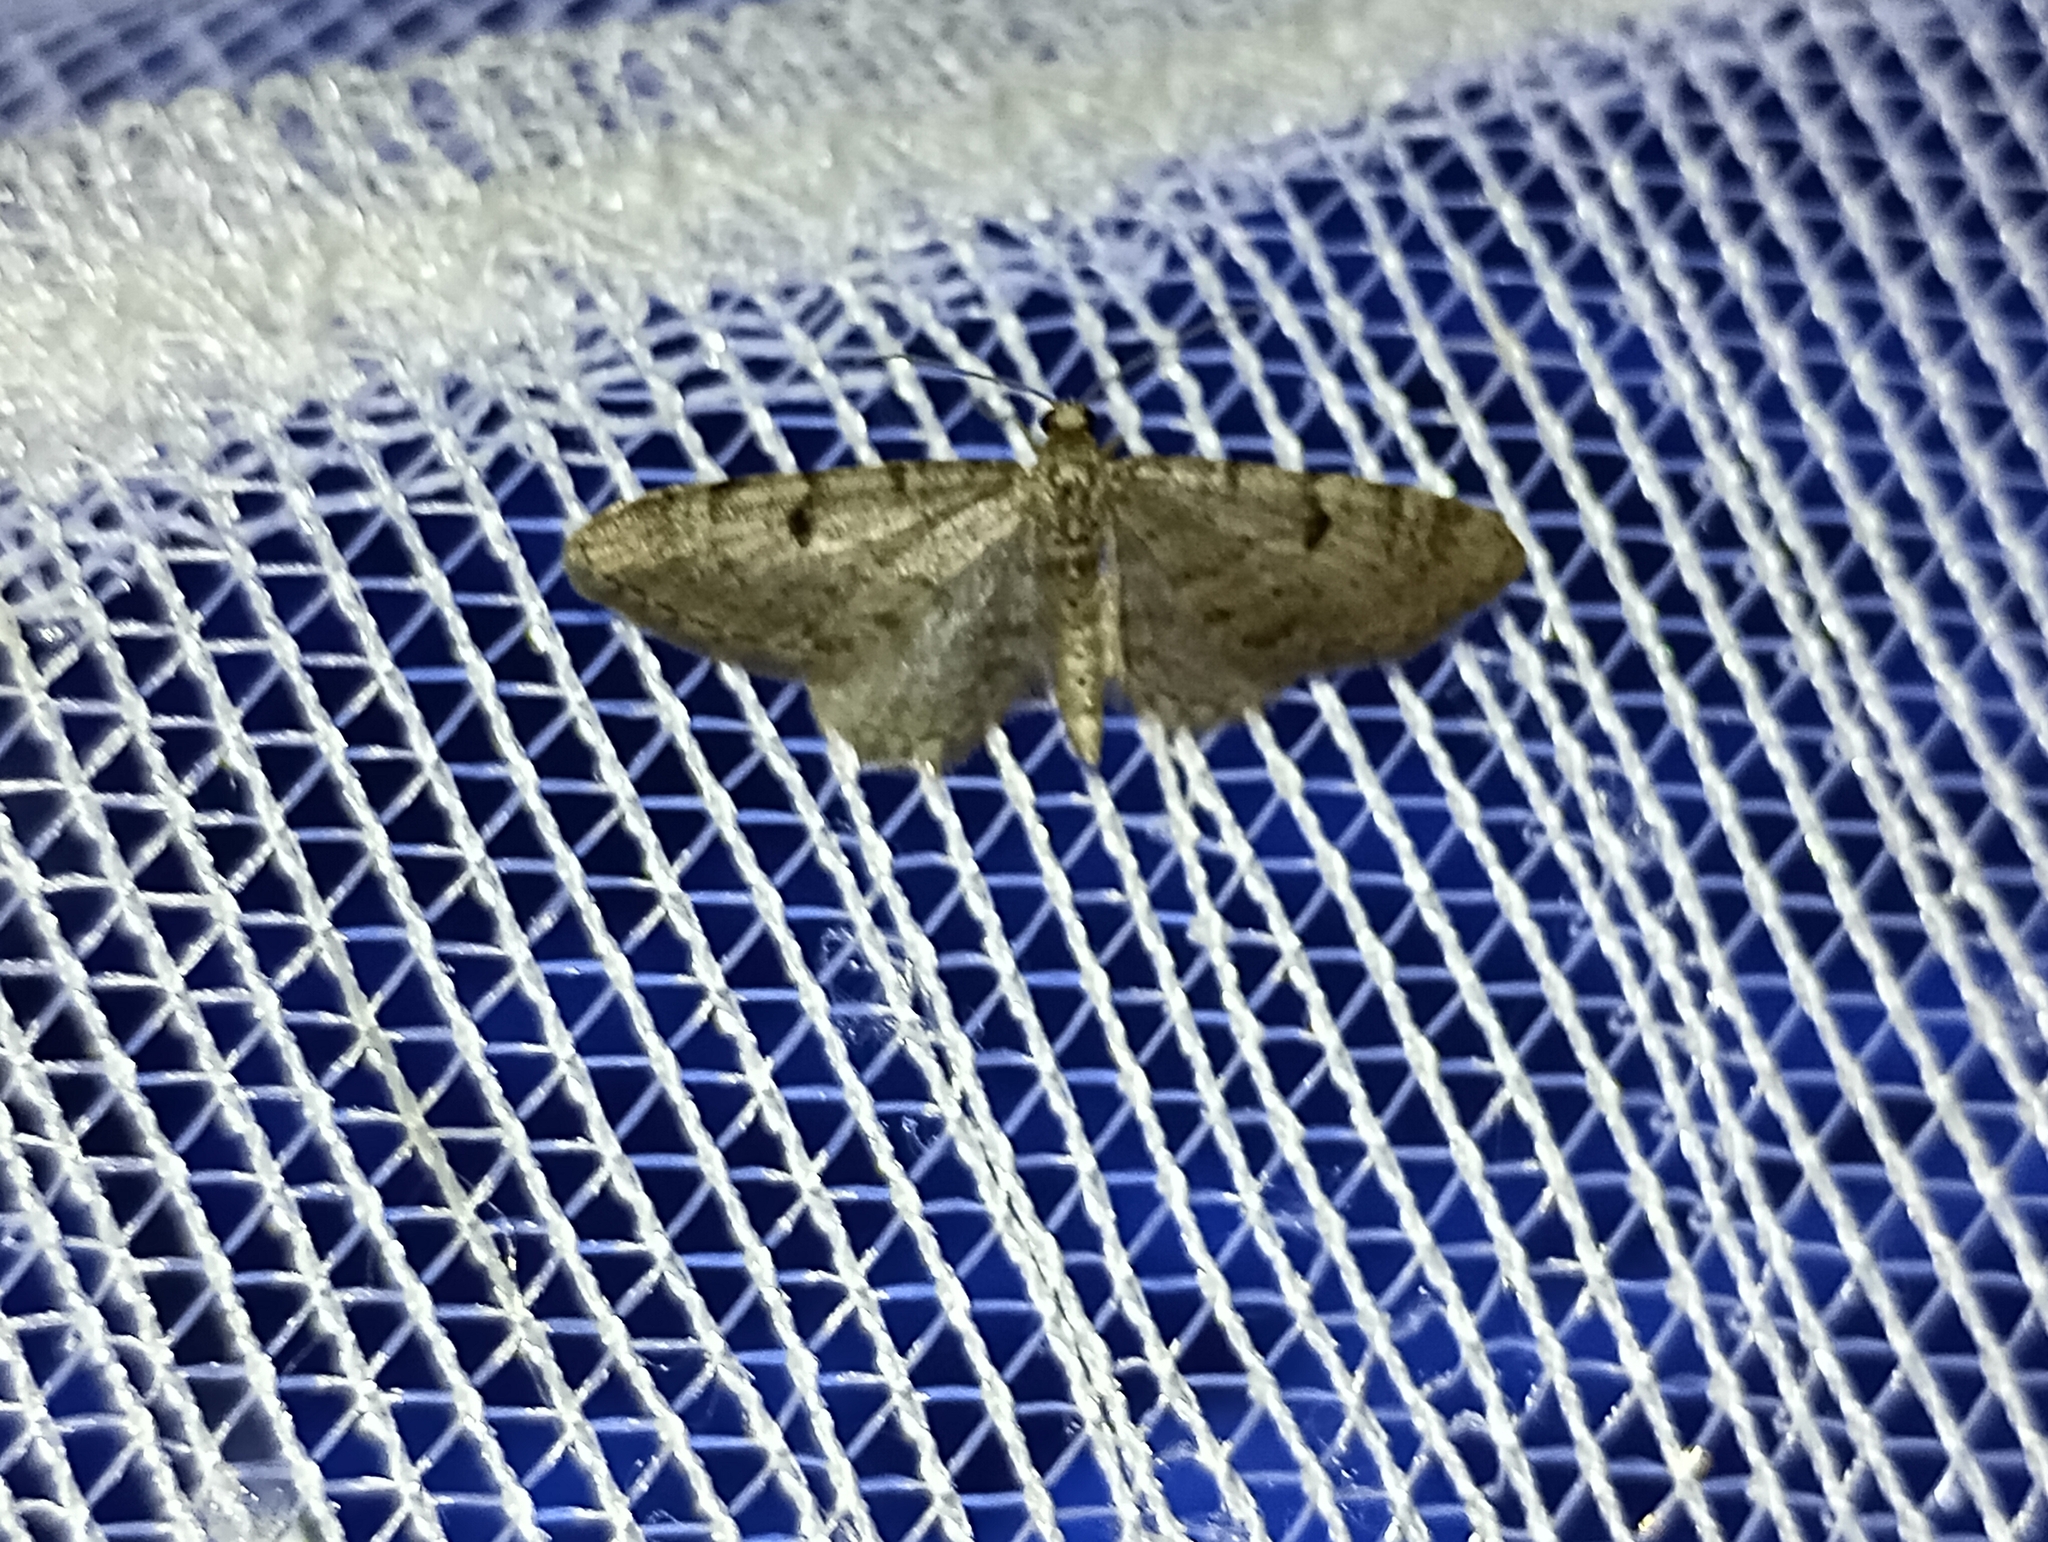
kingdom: Animalia
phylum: Arthropoda
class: Insecta
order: Lepidoptera
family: Geometridae
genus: Eupithecia
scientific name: Eupithecia indigata
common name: Ochreous pug
